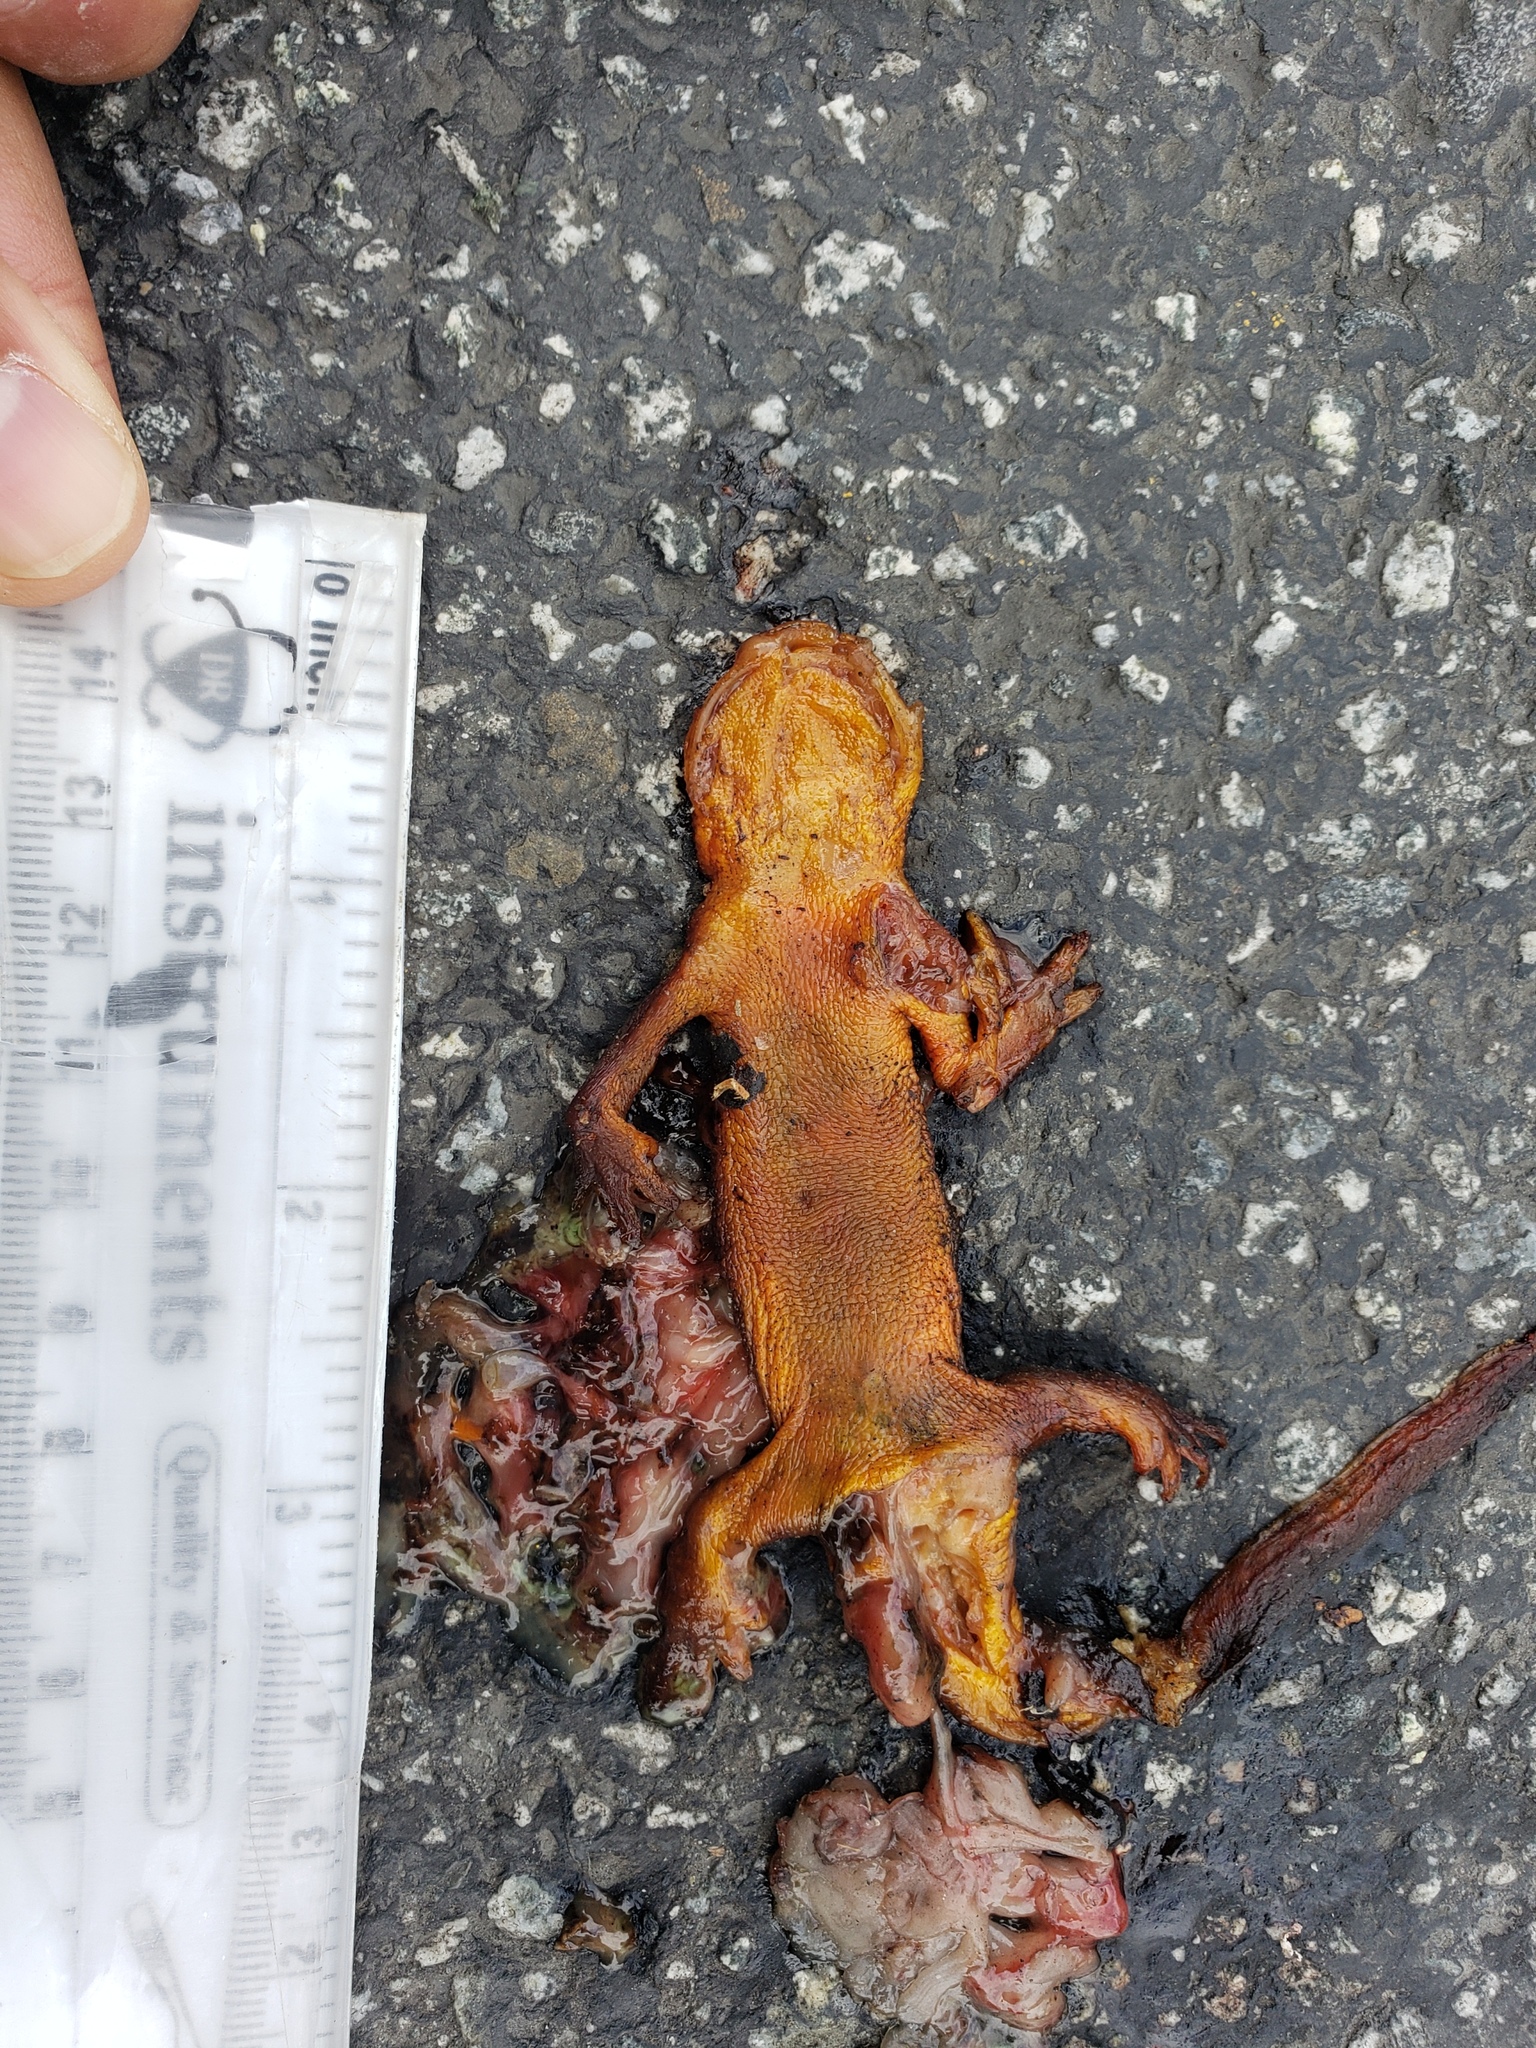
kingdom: Animalia
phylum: Chordata
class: Amphibia
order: Caudata
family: Salamandridae
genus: Taricha
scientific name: Taricha
